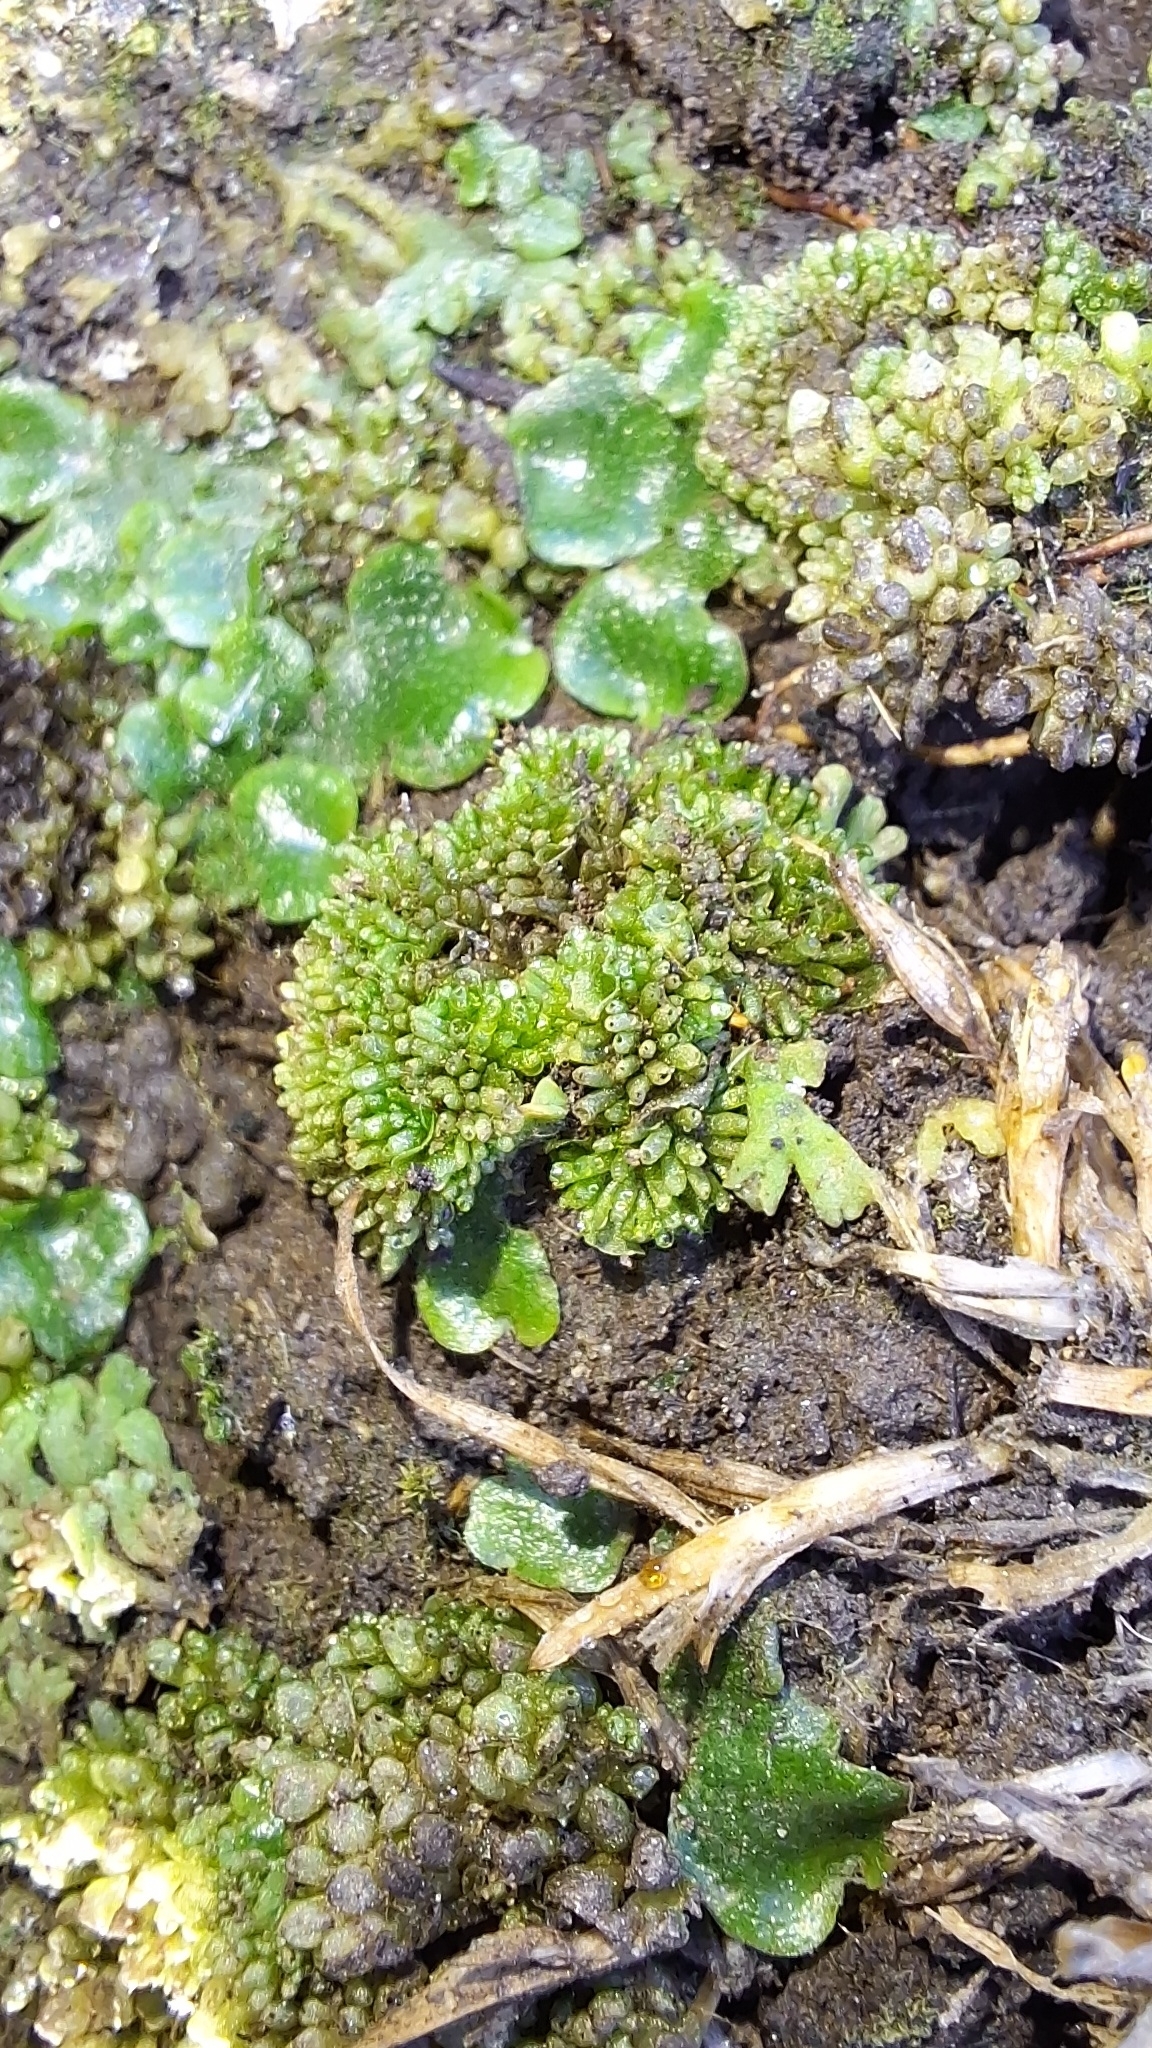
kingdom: Plantae
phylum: Marchantiophyta
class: Marchantiopsida
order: Sphaerocarpales
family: Sphaerocarpaceae
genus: Sphaerocarpos
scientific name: Sphaerocarpos texanus
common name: Texas balloonwort
